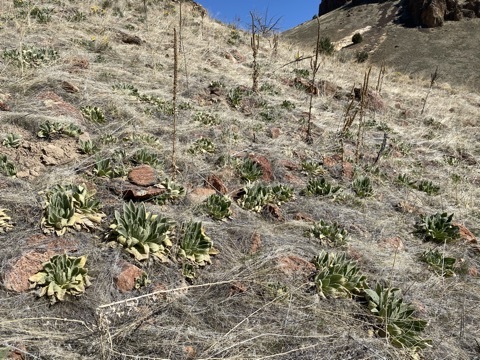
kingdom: Plantae
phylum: Tracheophyta
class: Magnoliopsida
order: Lamiales
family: Scrophulariaceae
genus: Verbascum
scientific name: Verbascum thapsus
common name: Common mullein
